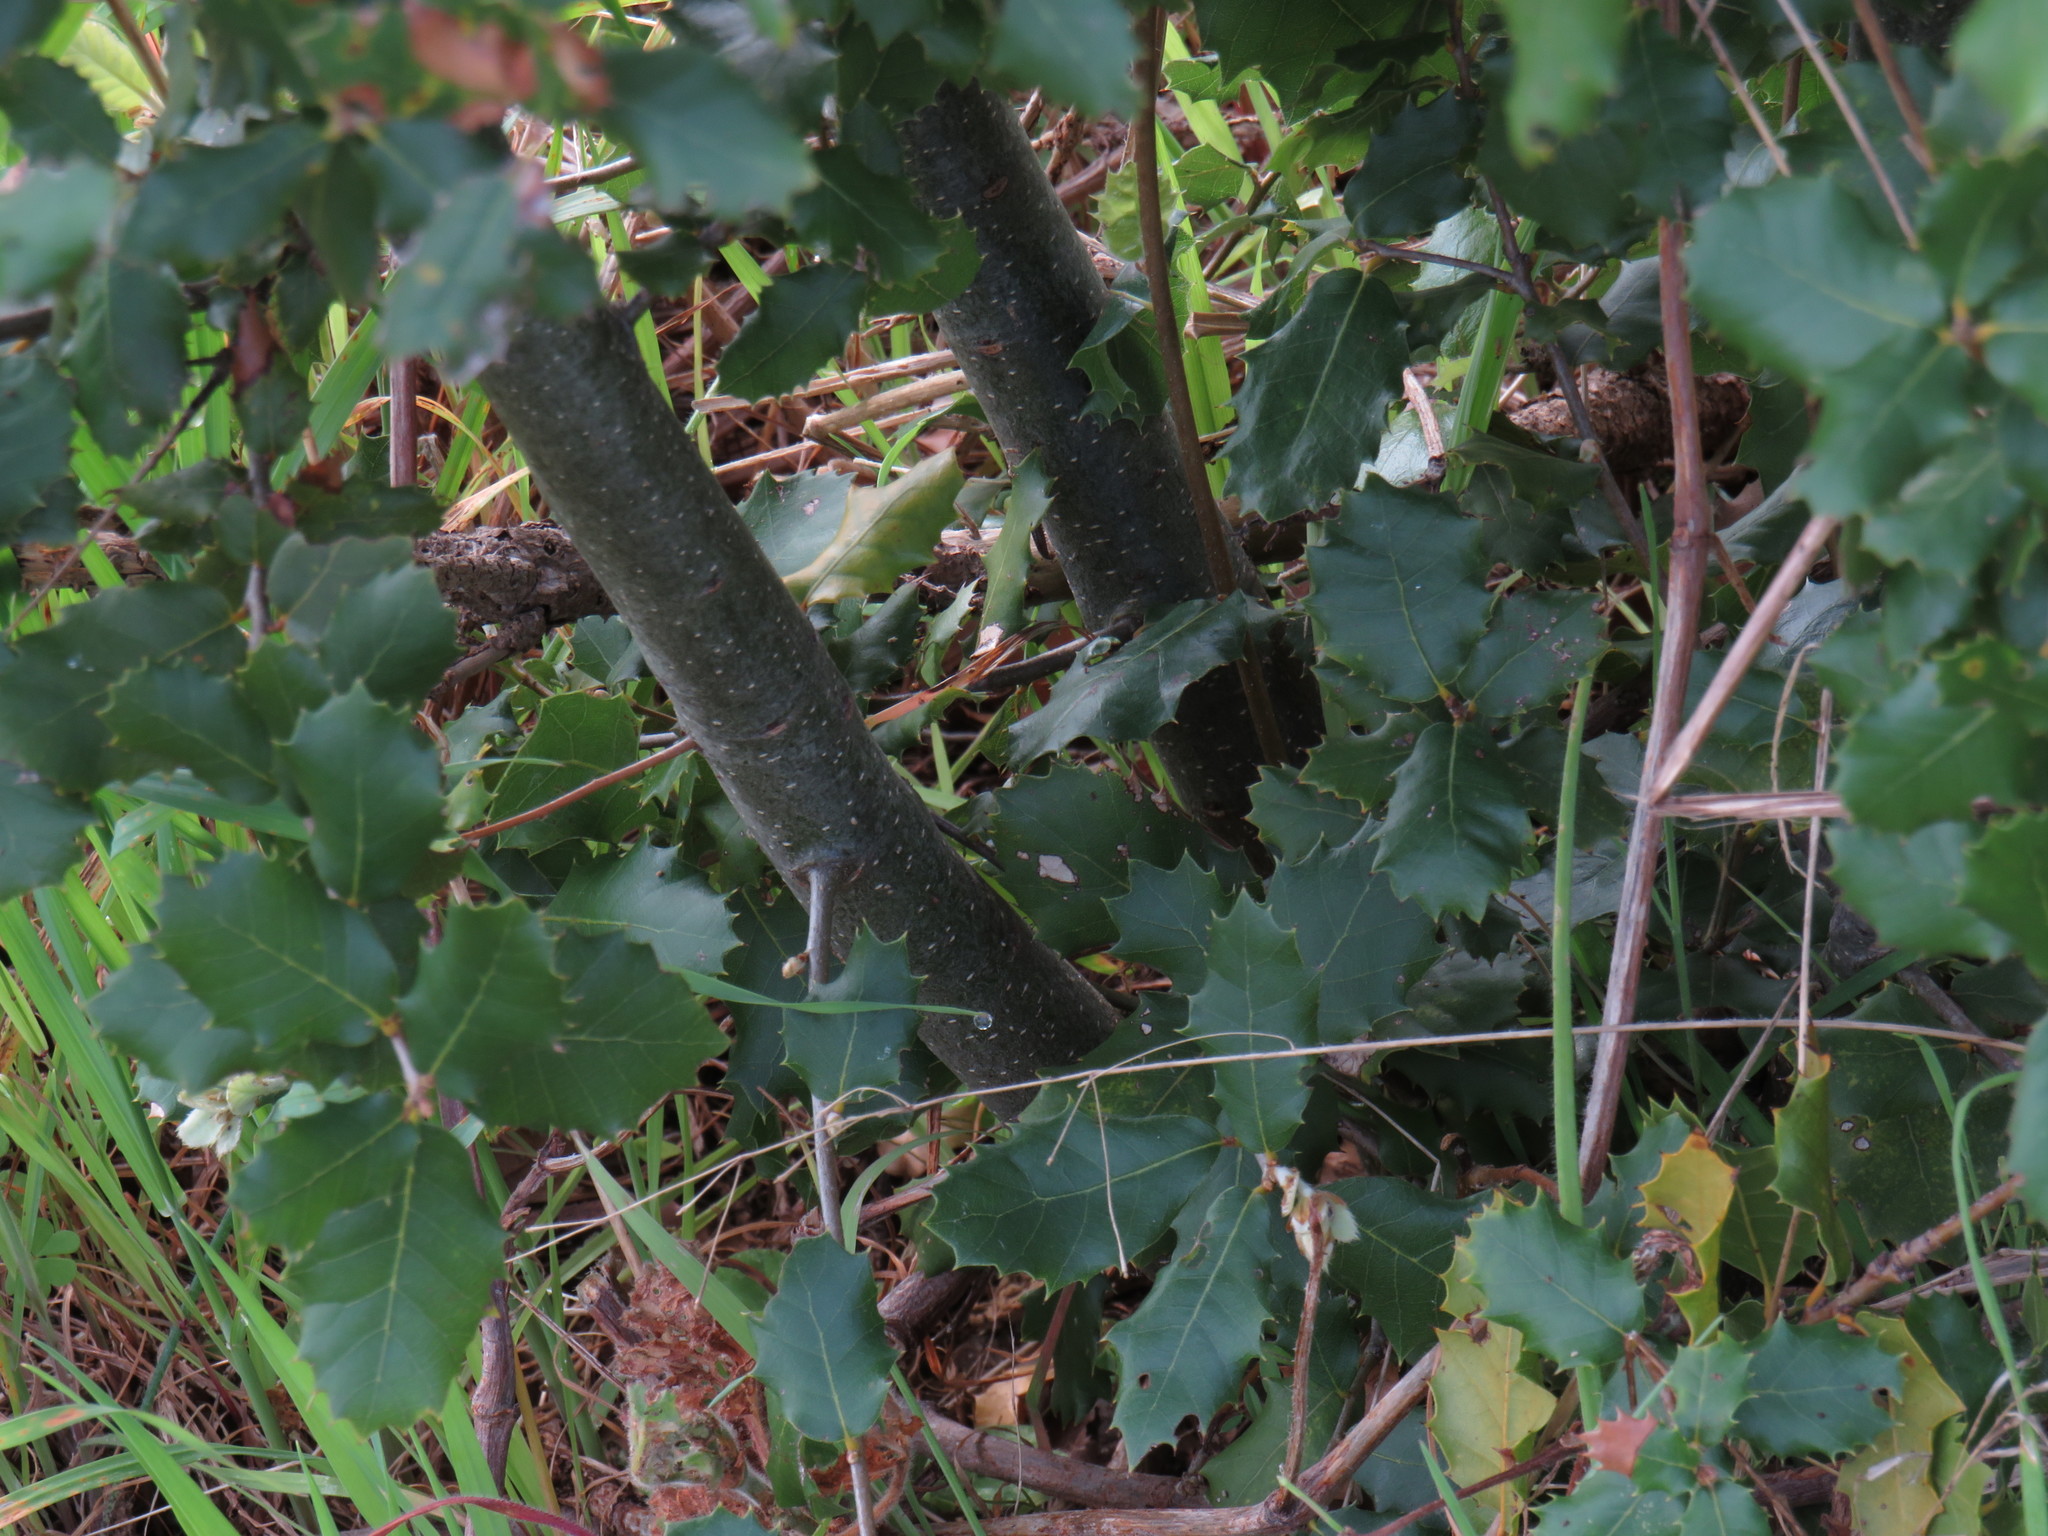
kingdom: Plantae
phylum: Tracheophyta
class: Magnoliopsida
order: Fagales
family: Fagaceae
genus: Quercus
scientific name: Quercus ilex
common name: Evergreen oak
